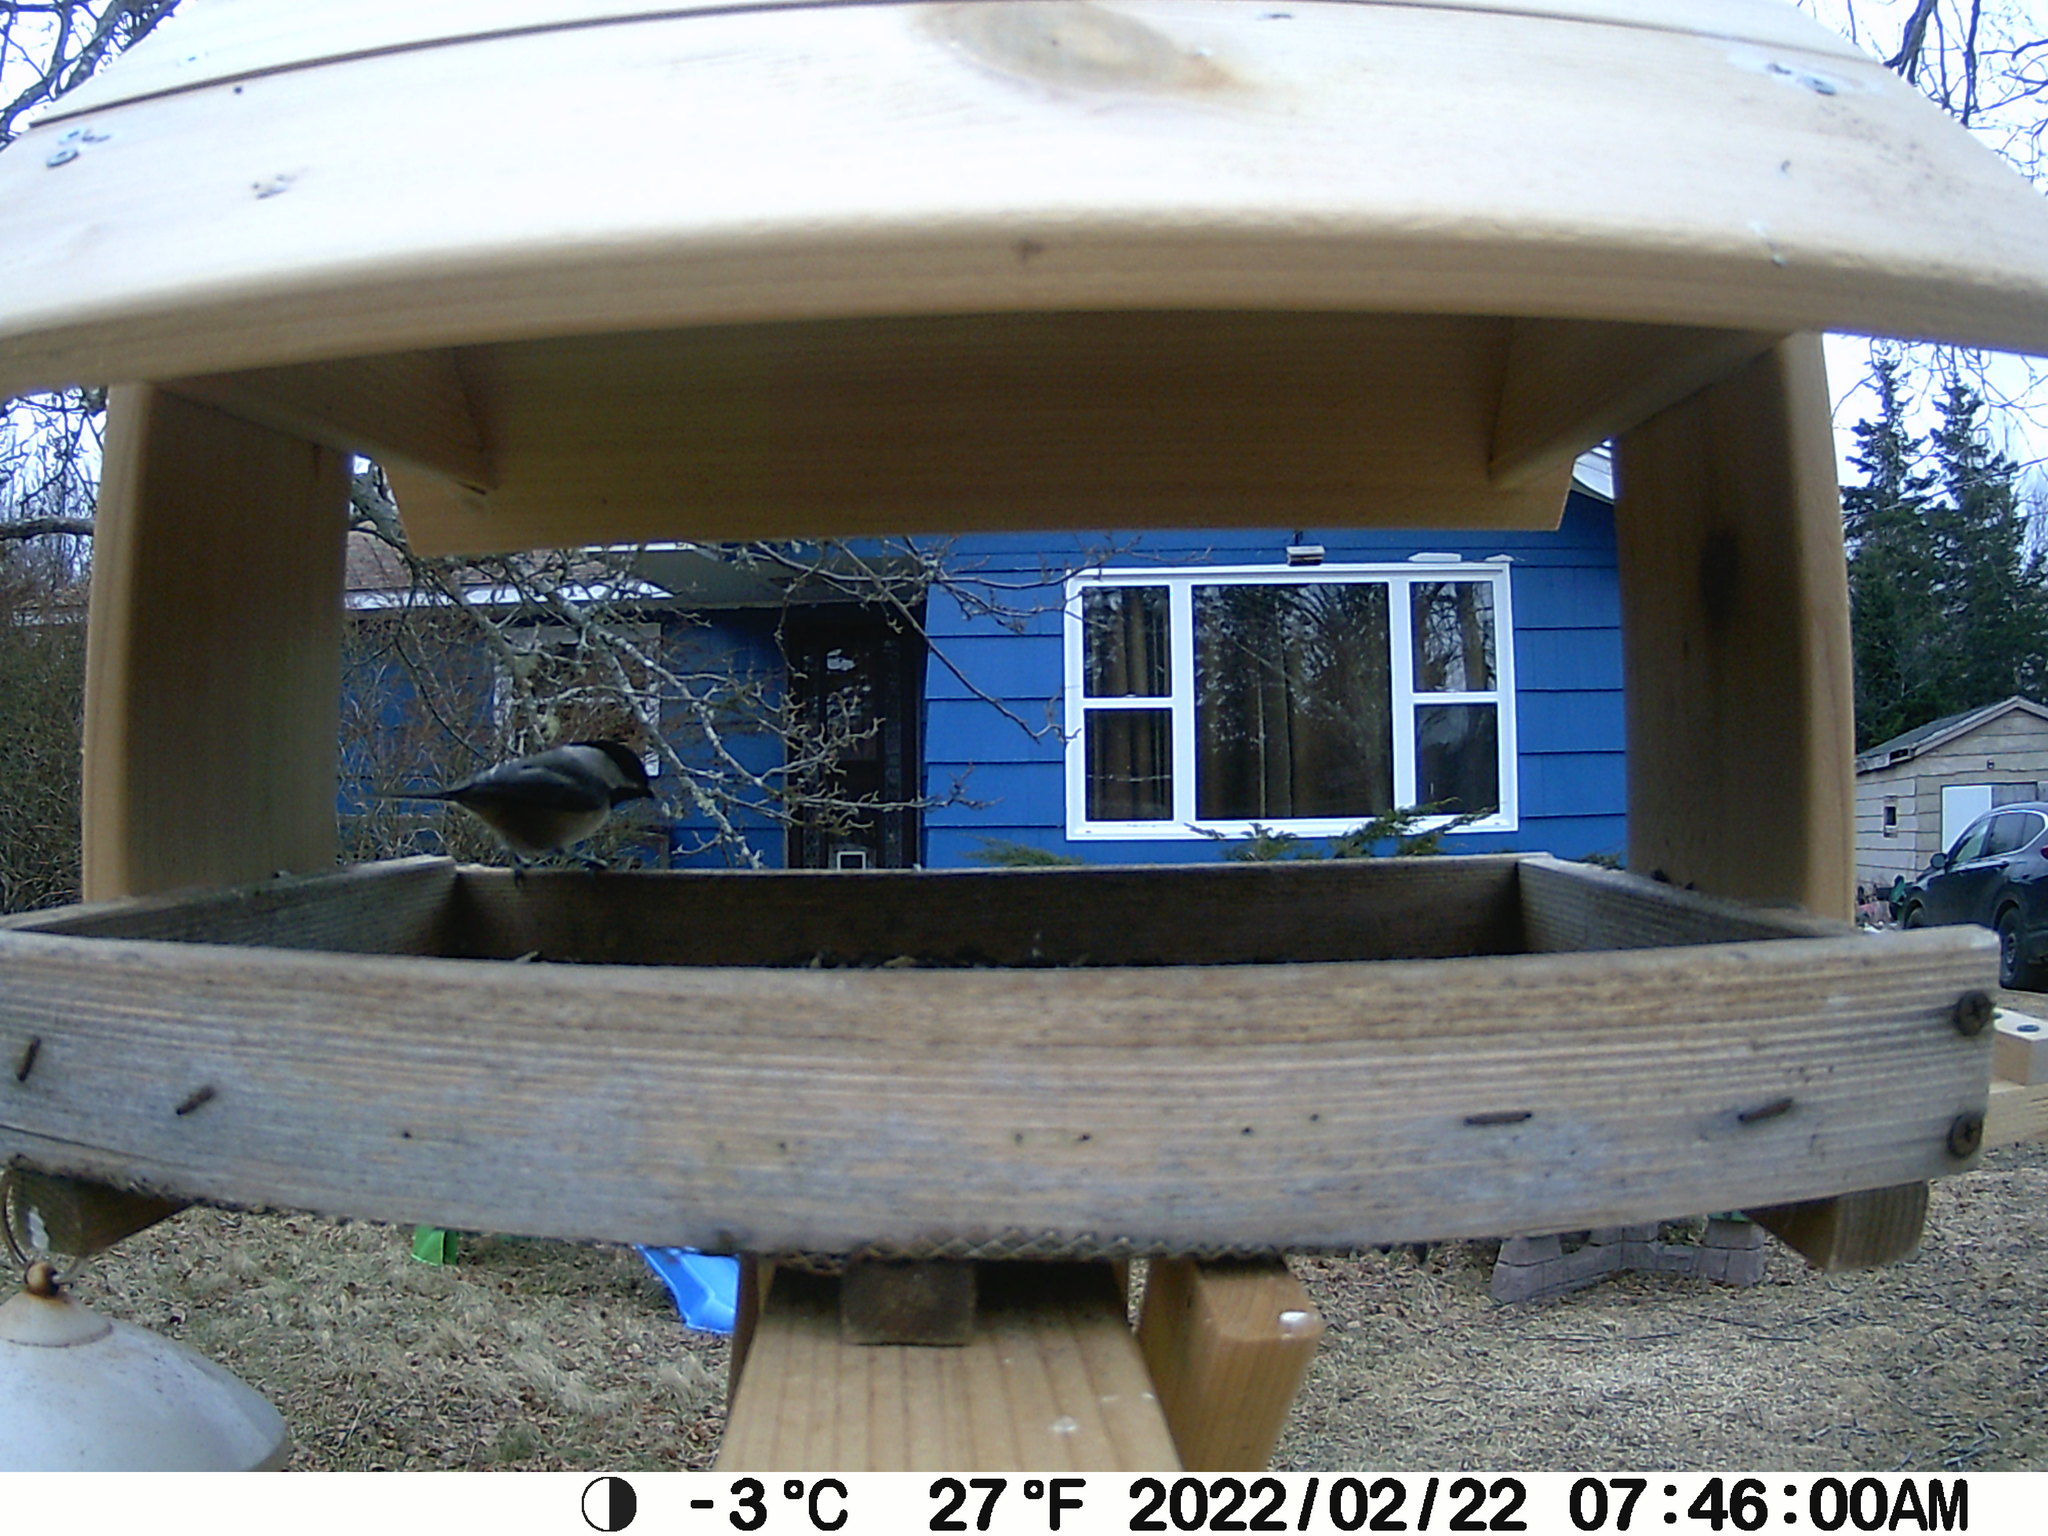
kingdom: Animalia
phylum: Chordata
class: Aves
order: Passeriformes
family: Paridae
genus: Poecile
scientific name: Poecile atricapillus
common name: Black-capped chickadee
